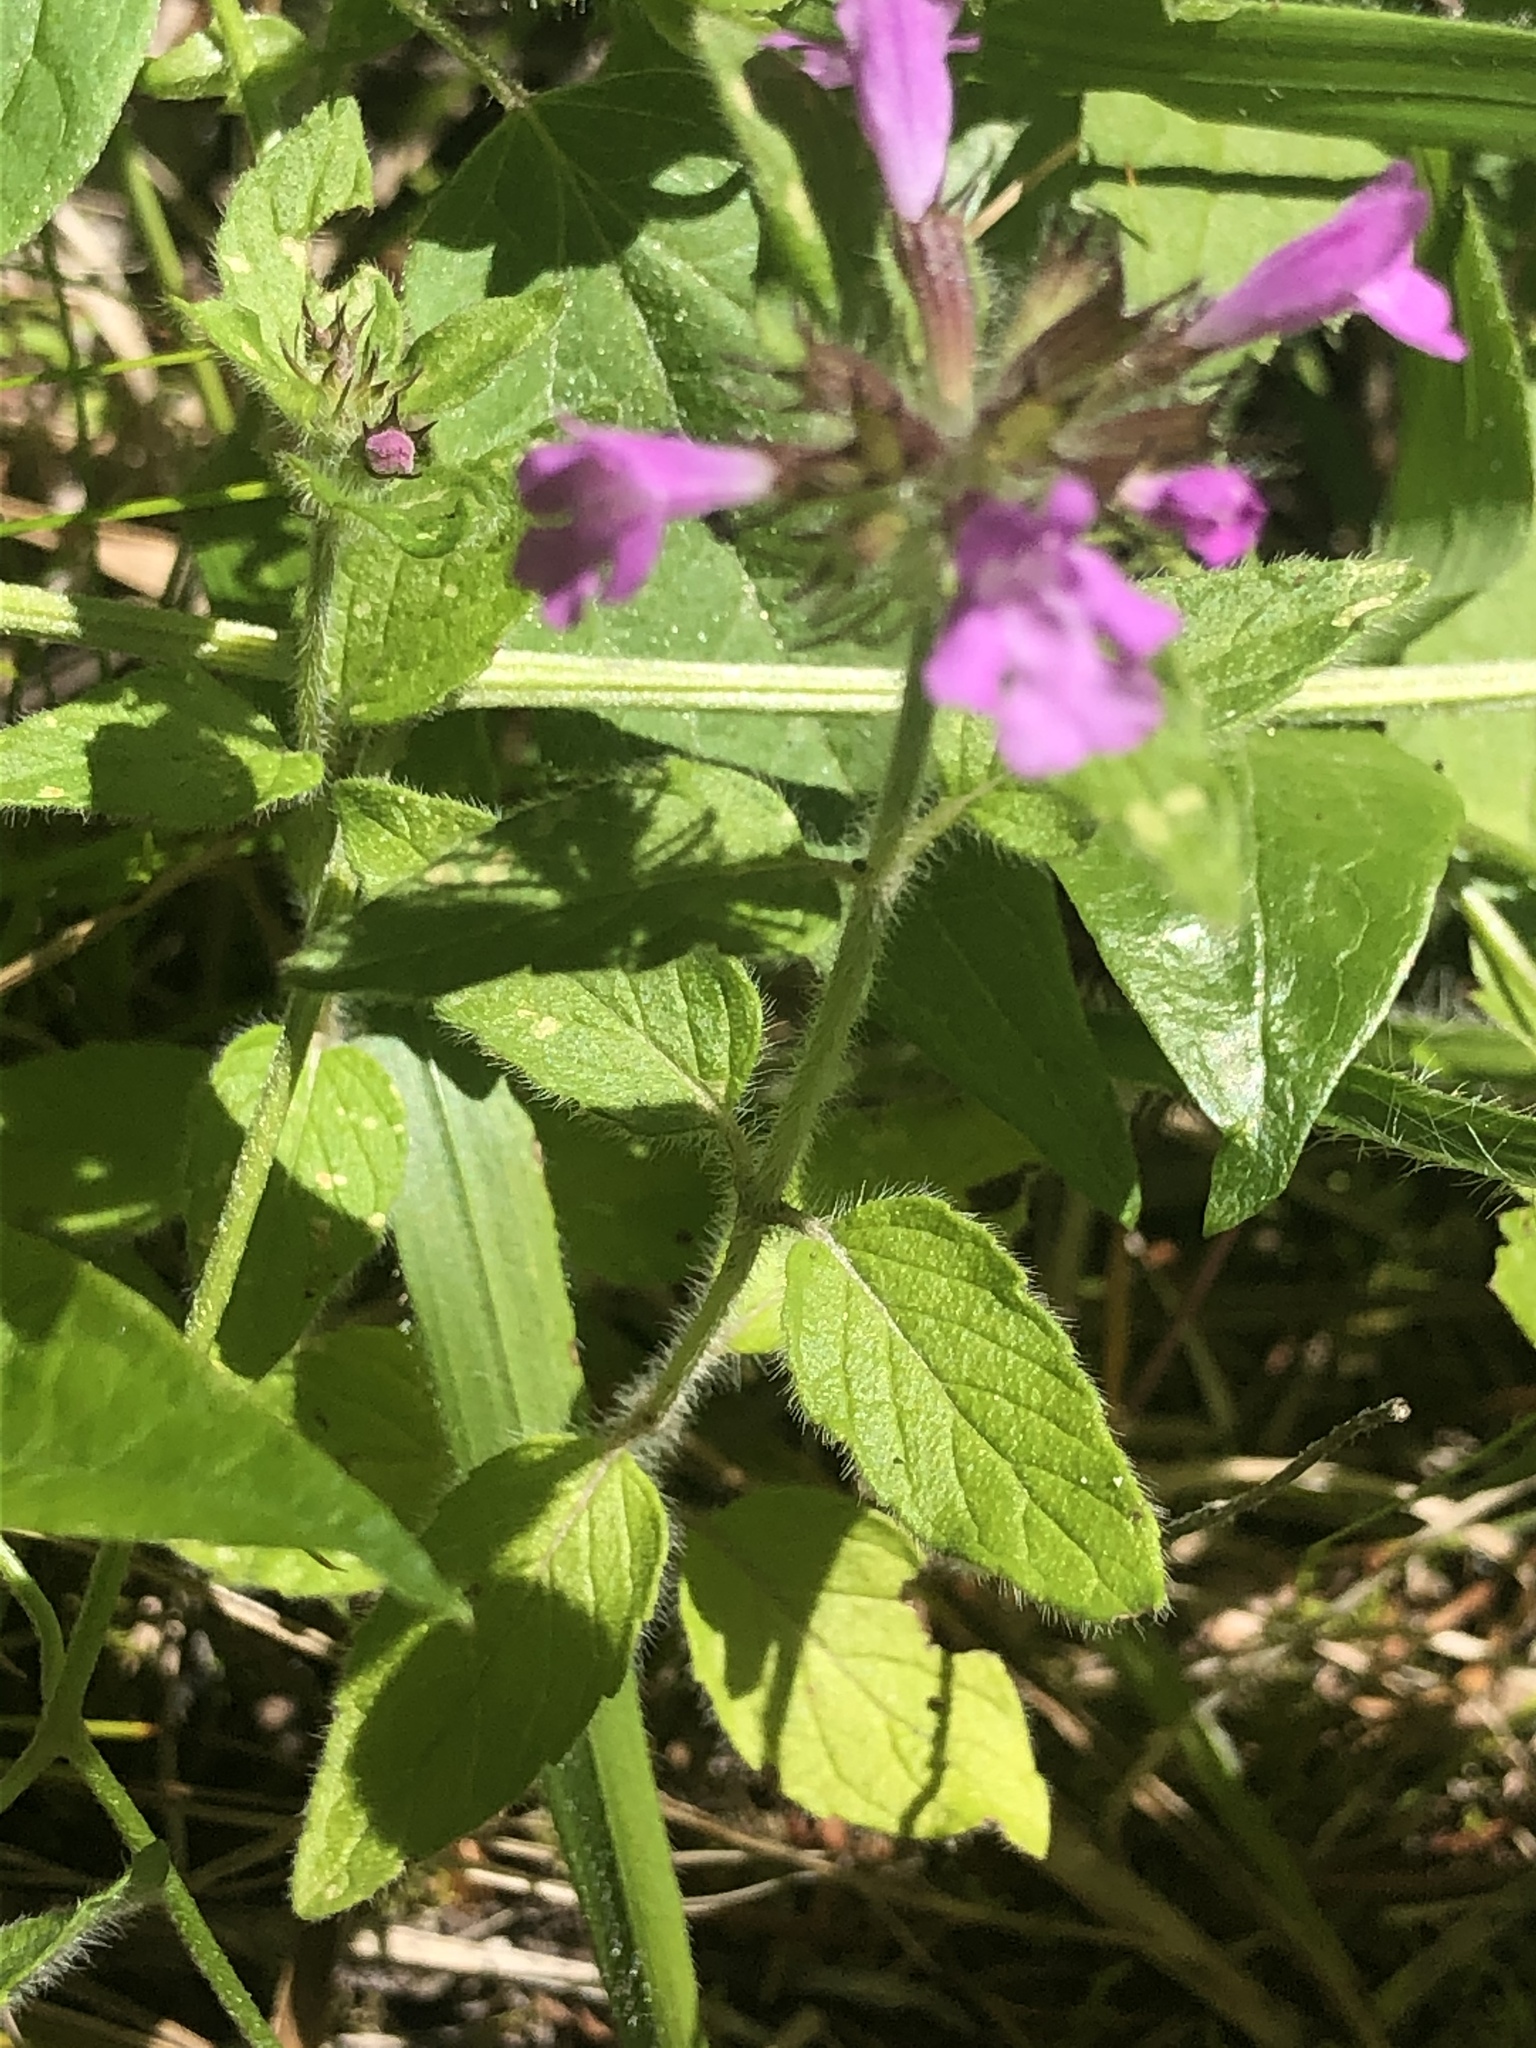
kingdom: Plantae
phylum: Tracheophyta
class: Magnoliopsida
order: Lamiales
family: Lamiaceae
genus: Clinopodium
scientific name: Clinopodium vulgare
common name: Wild basil
